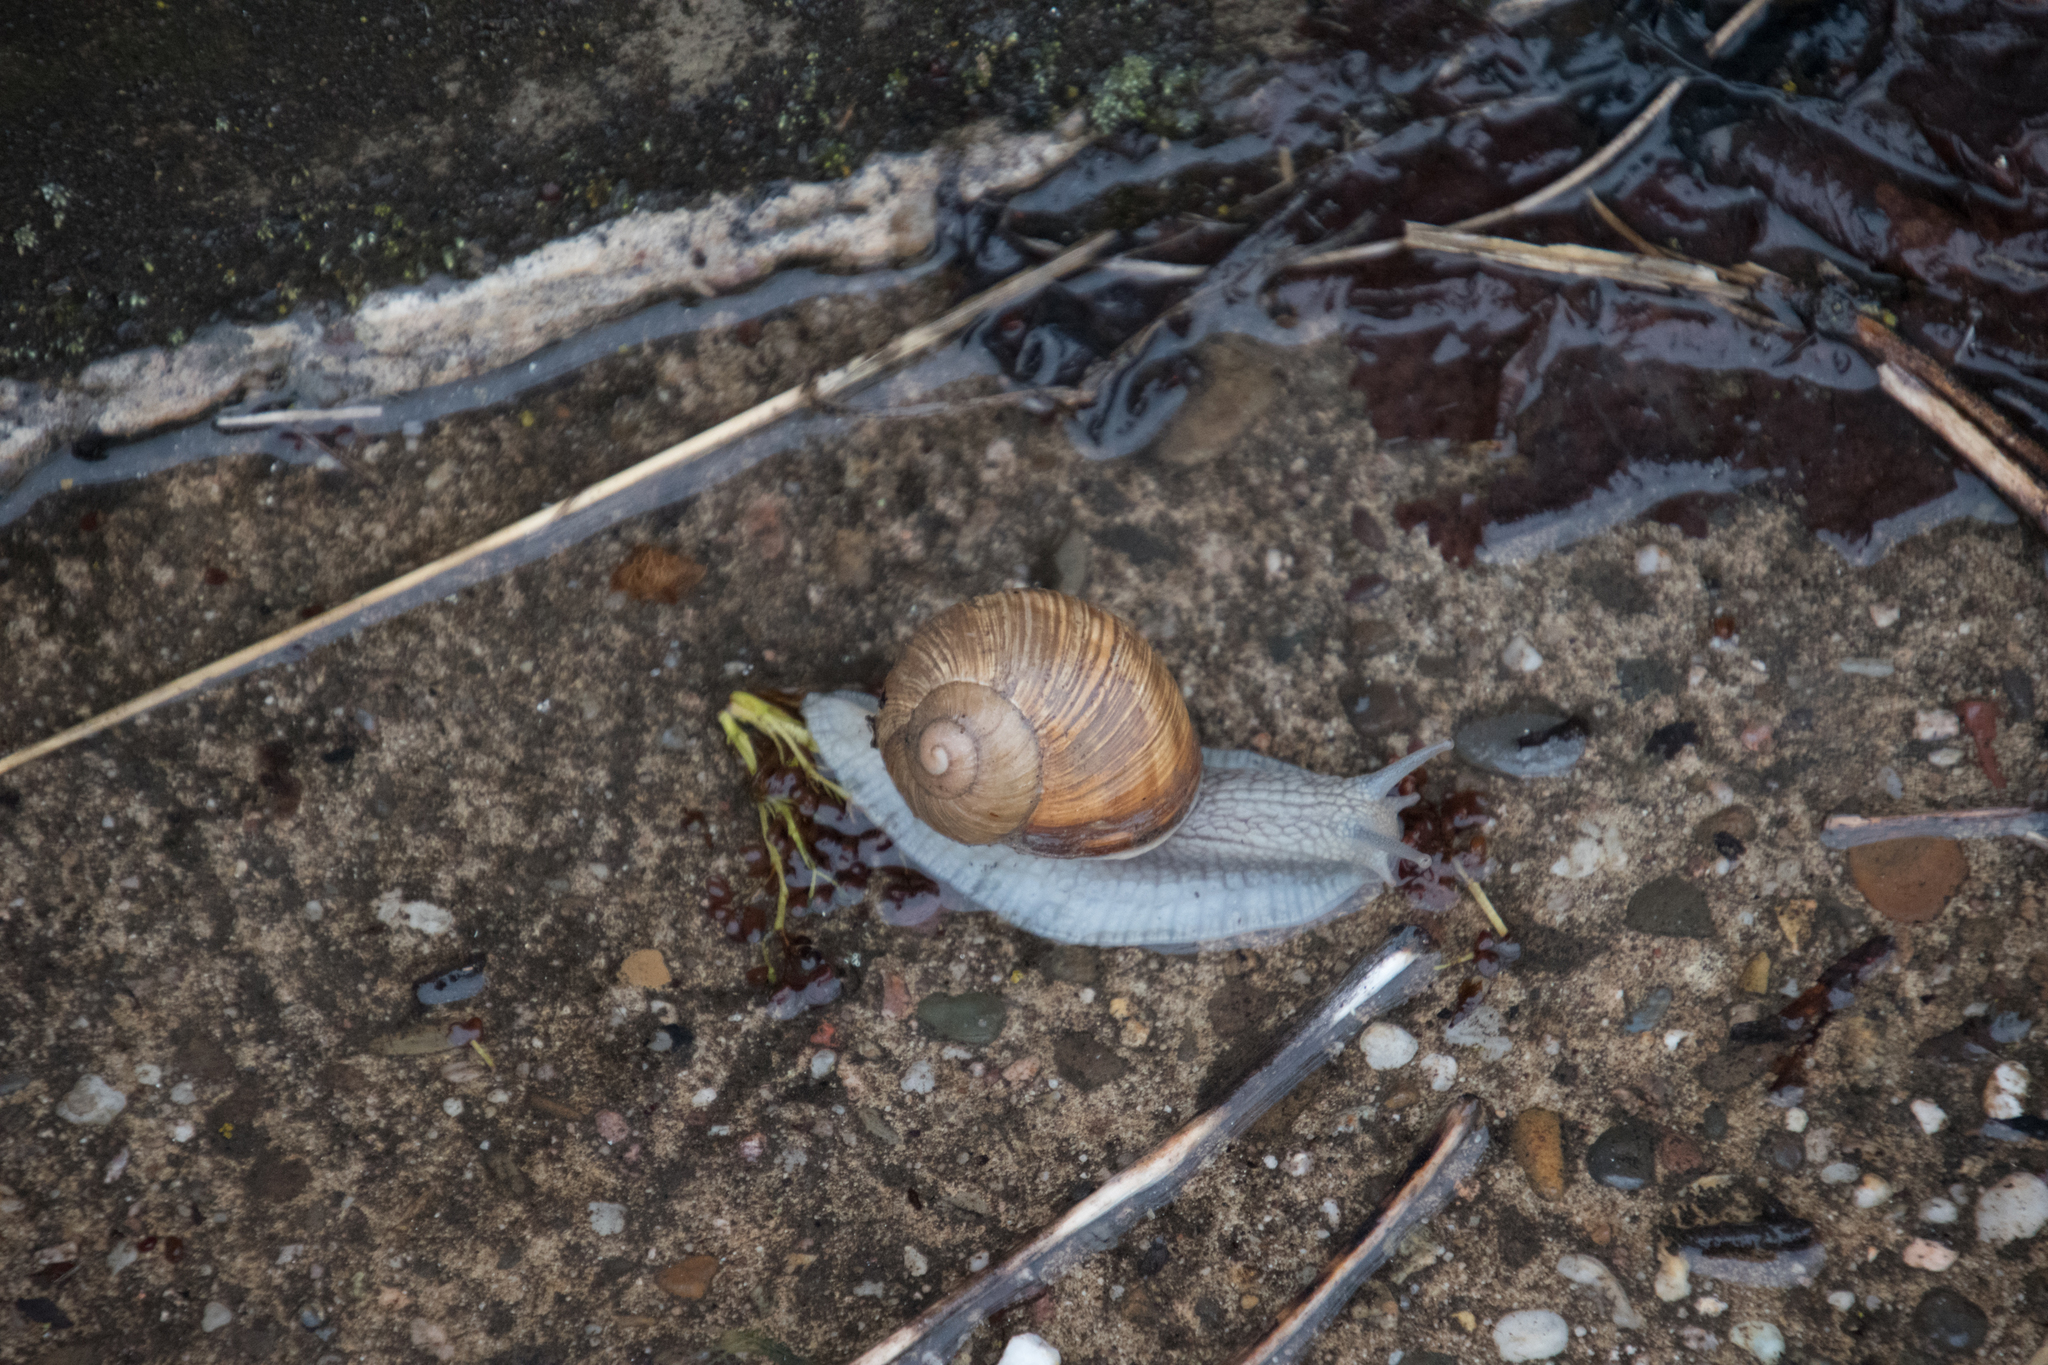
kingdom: Animalia
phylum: Mollusca
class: Gastropoda
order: Stylommatophora
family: Helicidae
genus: Helix
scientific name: Helix pomatia
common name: Roman snail
